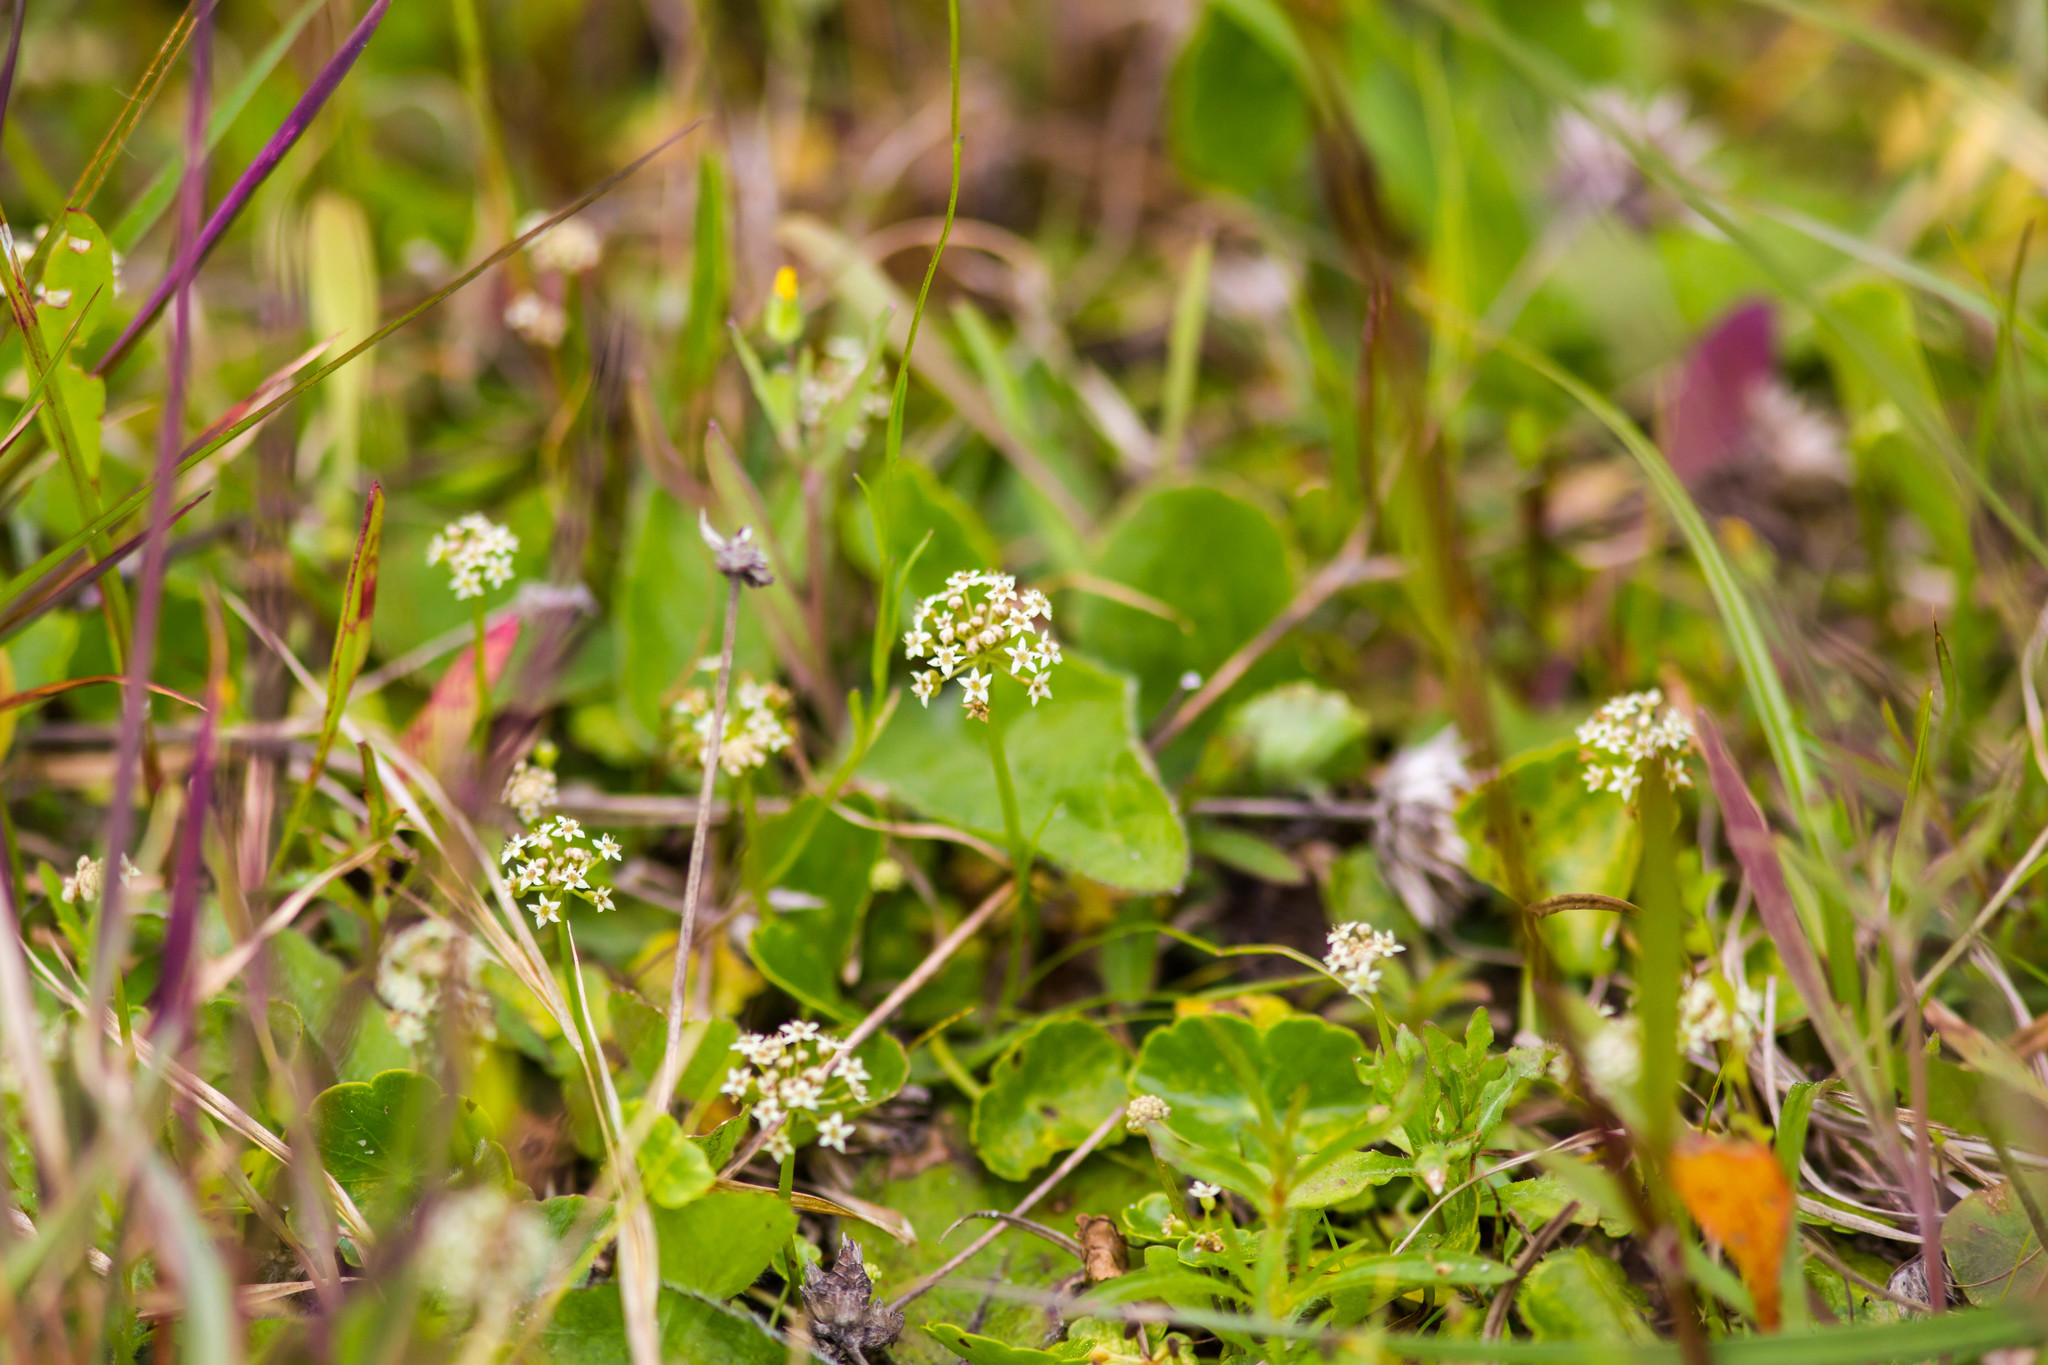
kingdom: Plantae
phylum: Tracheophyta
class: Magnoliopsida
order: Apiales
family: Araliaceae
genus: Hydrocotyle
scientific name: Hydrocotyle umbellata
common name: Water pennywort
